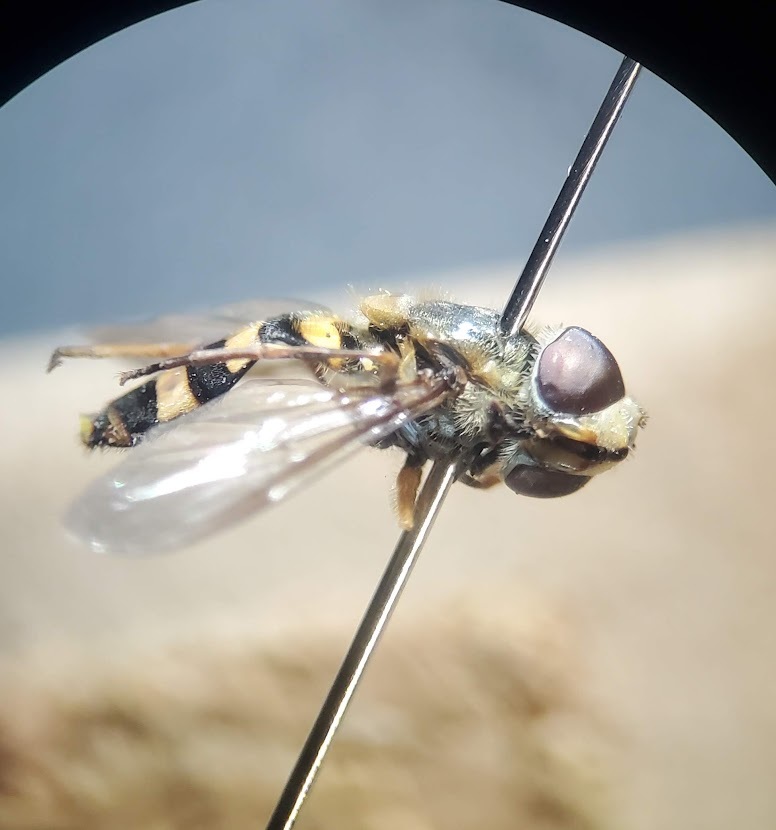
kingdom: Animalia
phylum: Arthropoda
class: Insecta
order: Diptera
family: Syrphidae
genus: Eupeodes
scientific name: Eupeodes
